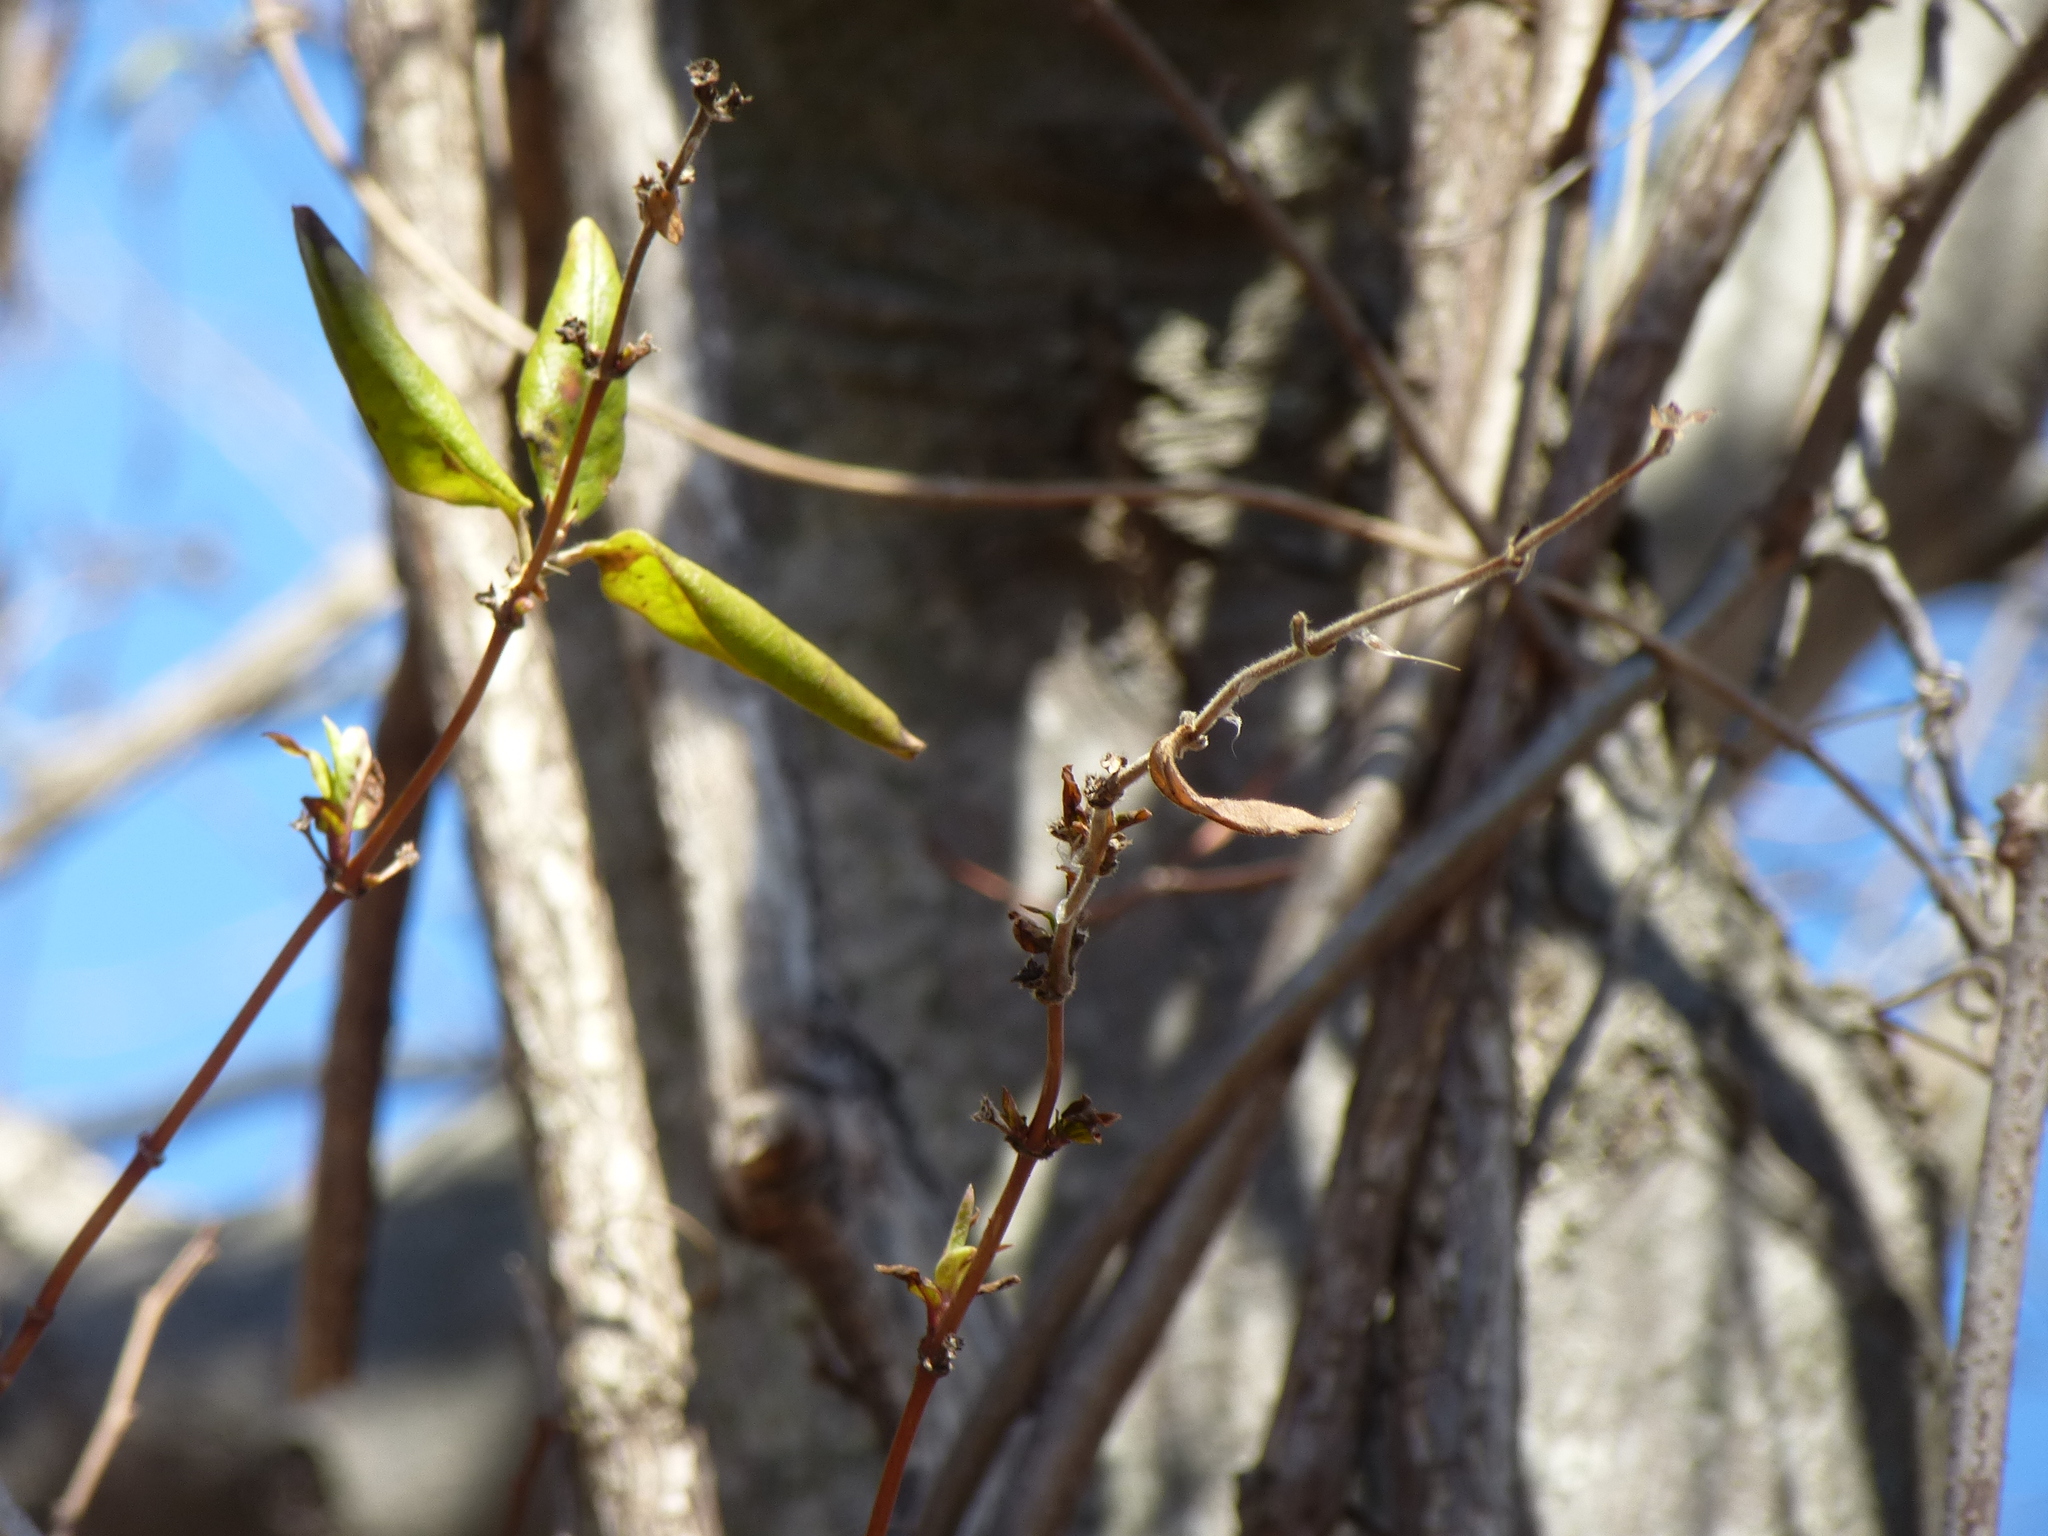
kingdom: Plantae
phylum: Tracheophyta
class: Magnoliopsida
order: Dipsacales
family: Caprifoliaceae
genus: Lonicera
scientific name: Lonicera japonica
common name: Japanese honeysuckle
